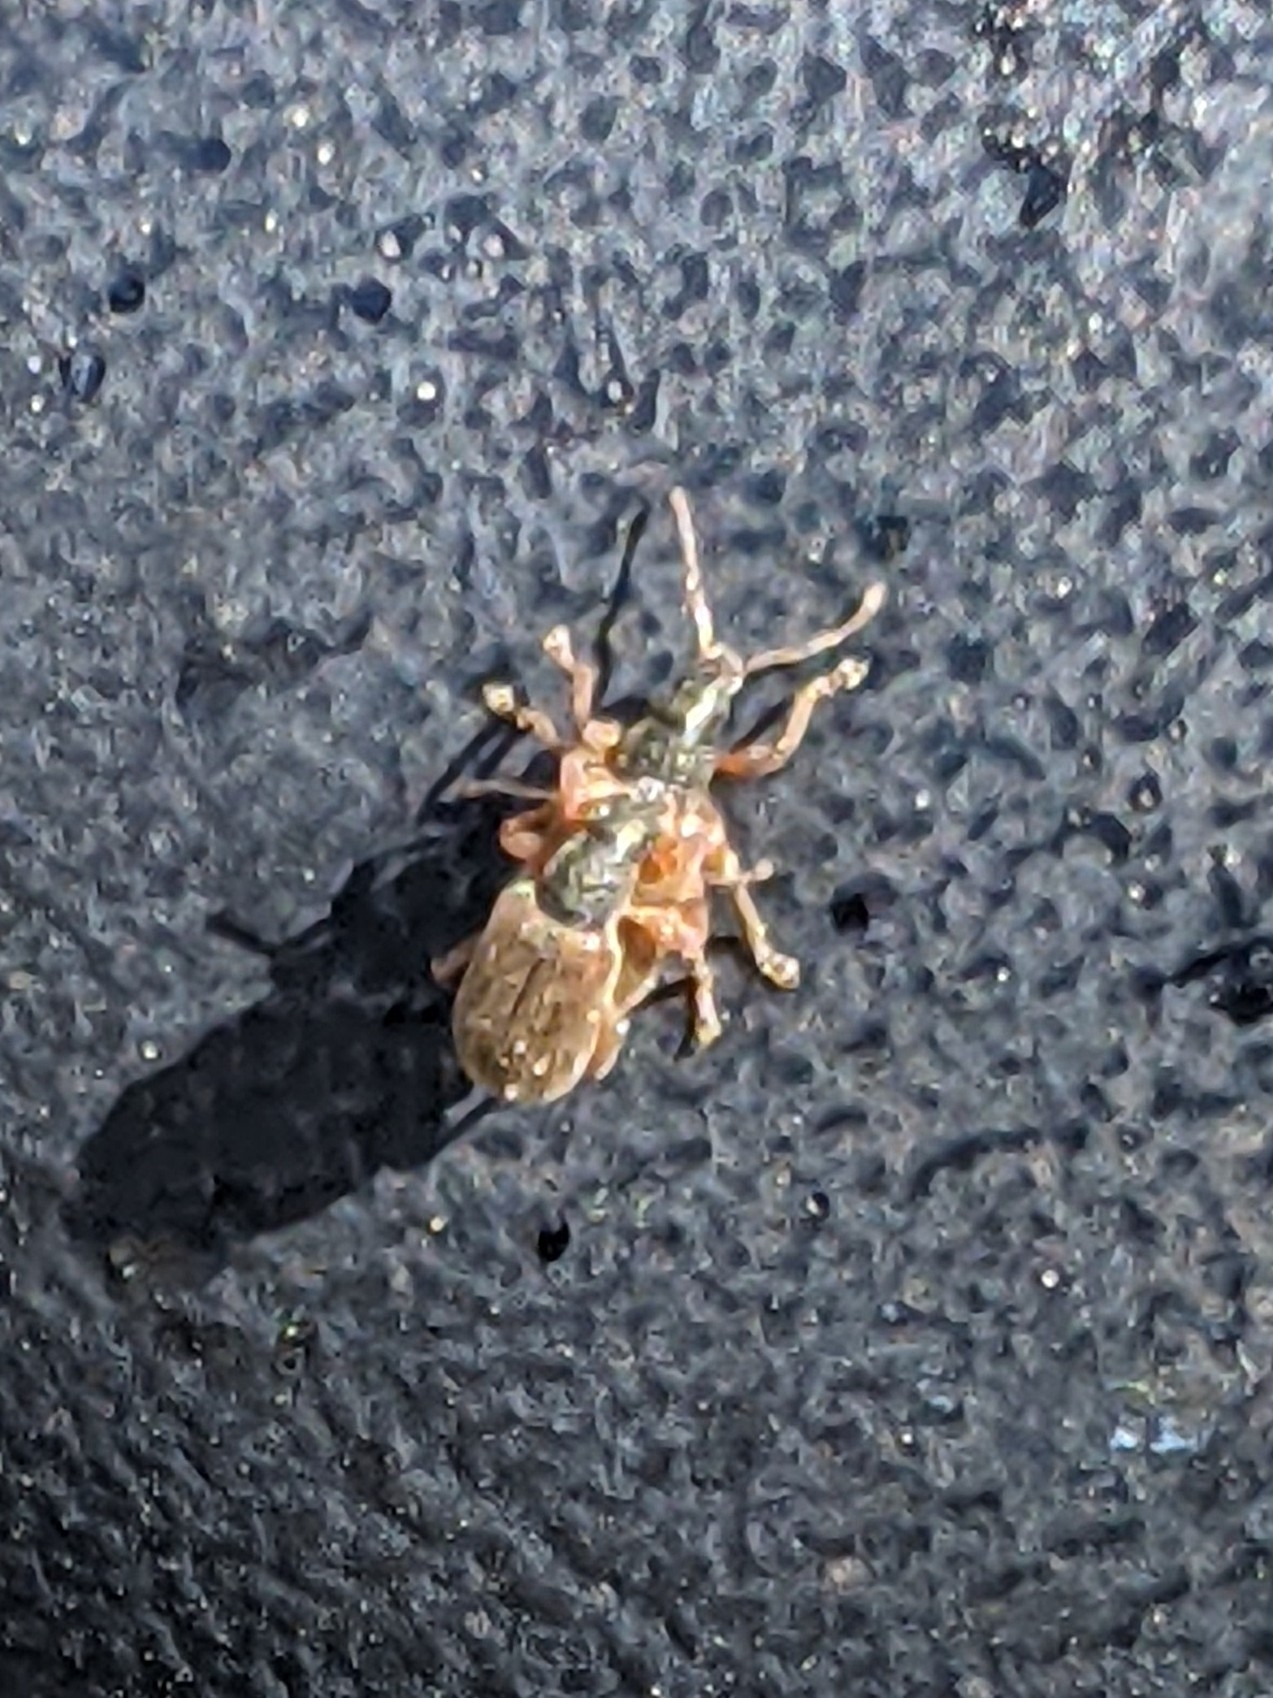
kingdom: Animalia
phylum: Arthropoda
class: Insecta
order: Coleoptera
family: Curculionidae
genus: Phyllobius
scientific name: Phyllobius oblongus
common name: Brown leaf weevil
